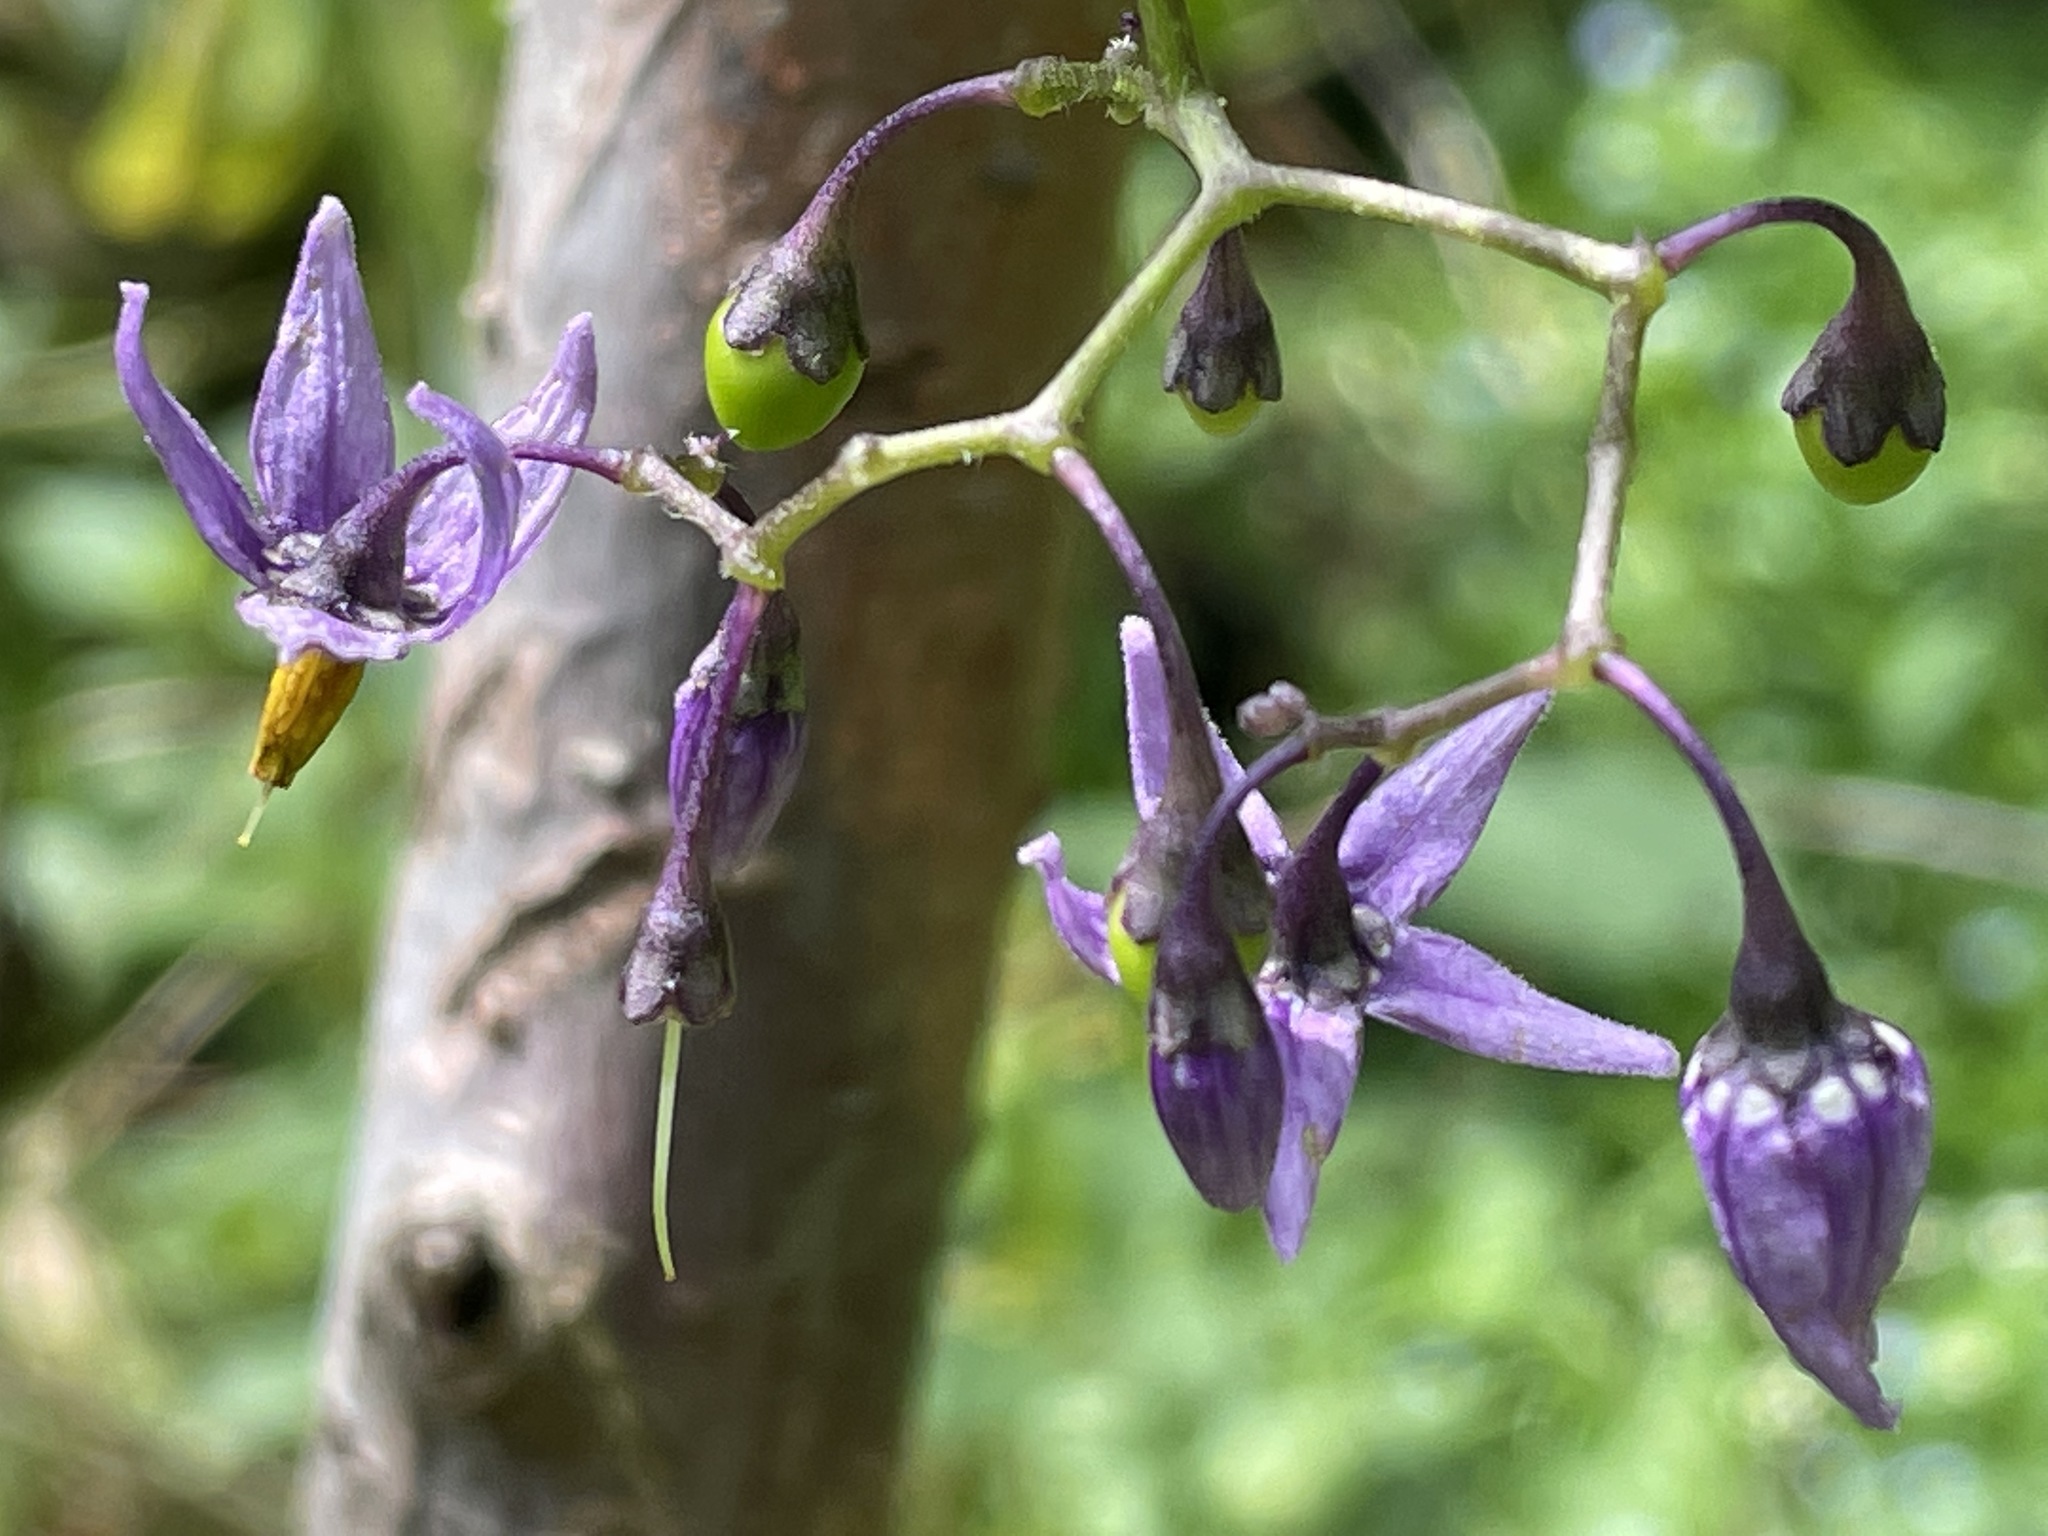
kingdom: Plantae
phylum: Tracheophyta
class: Magnoliopsida
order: Solanales
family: Solanaceae
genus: Solanum
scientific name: Solanum dulcamara
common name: Climbing nightshade
